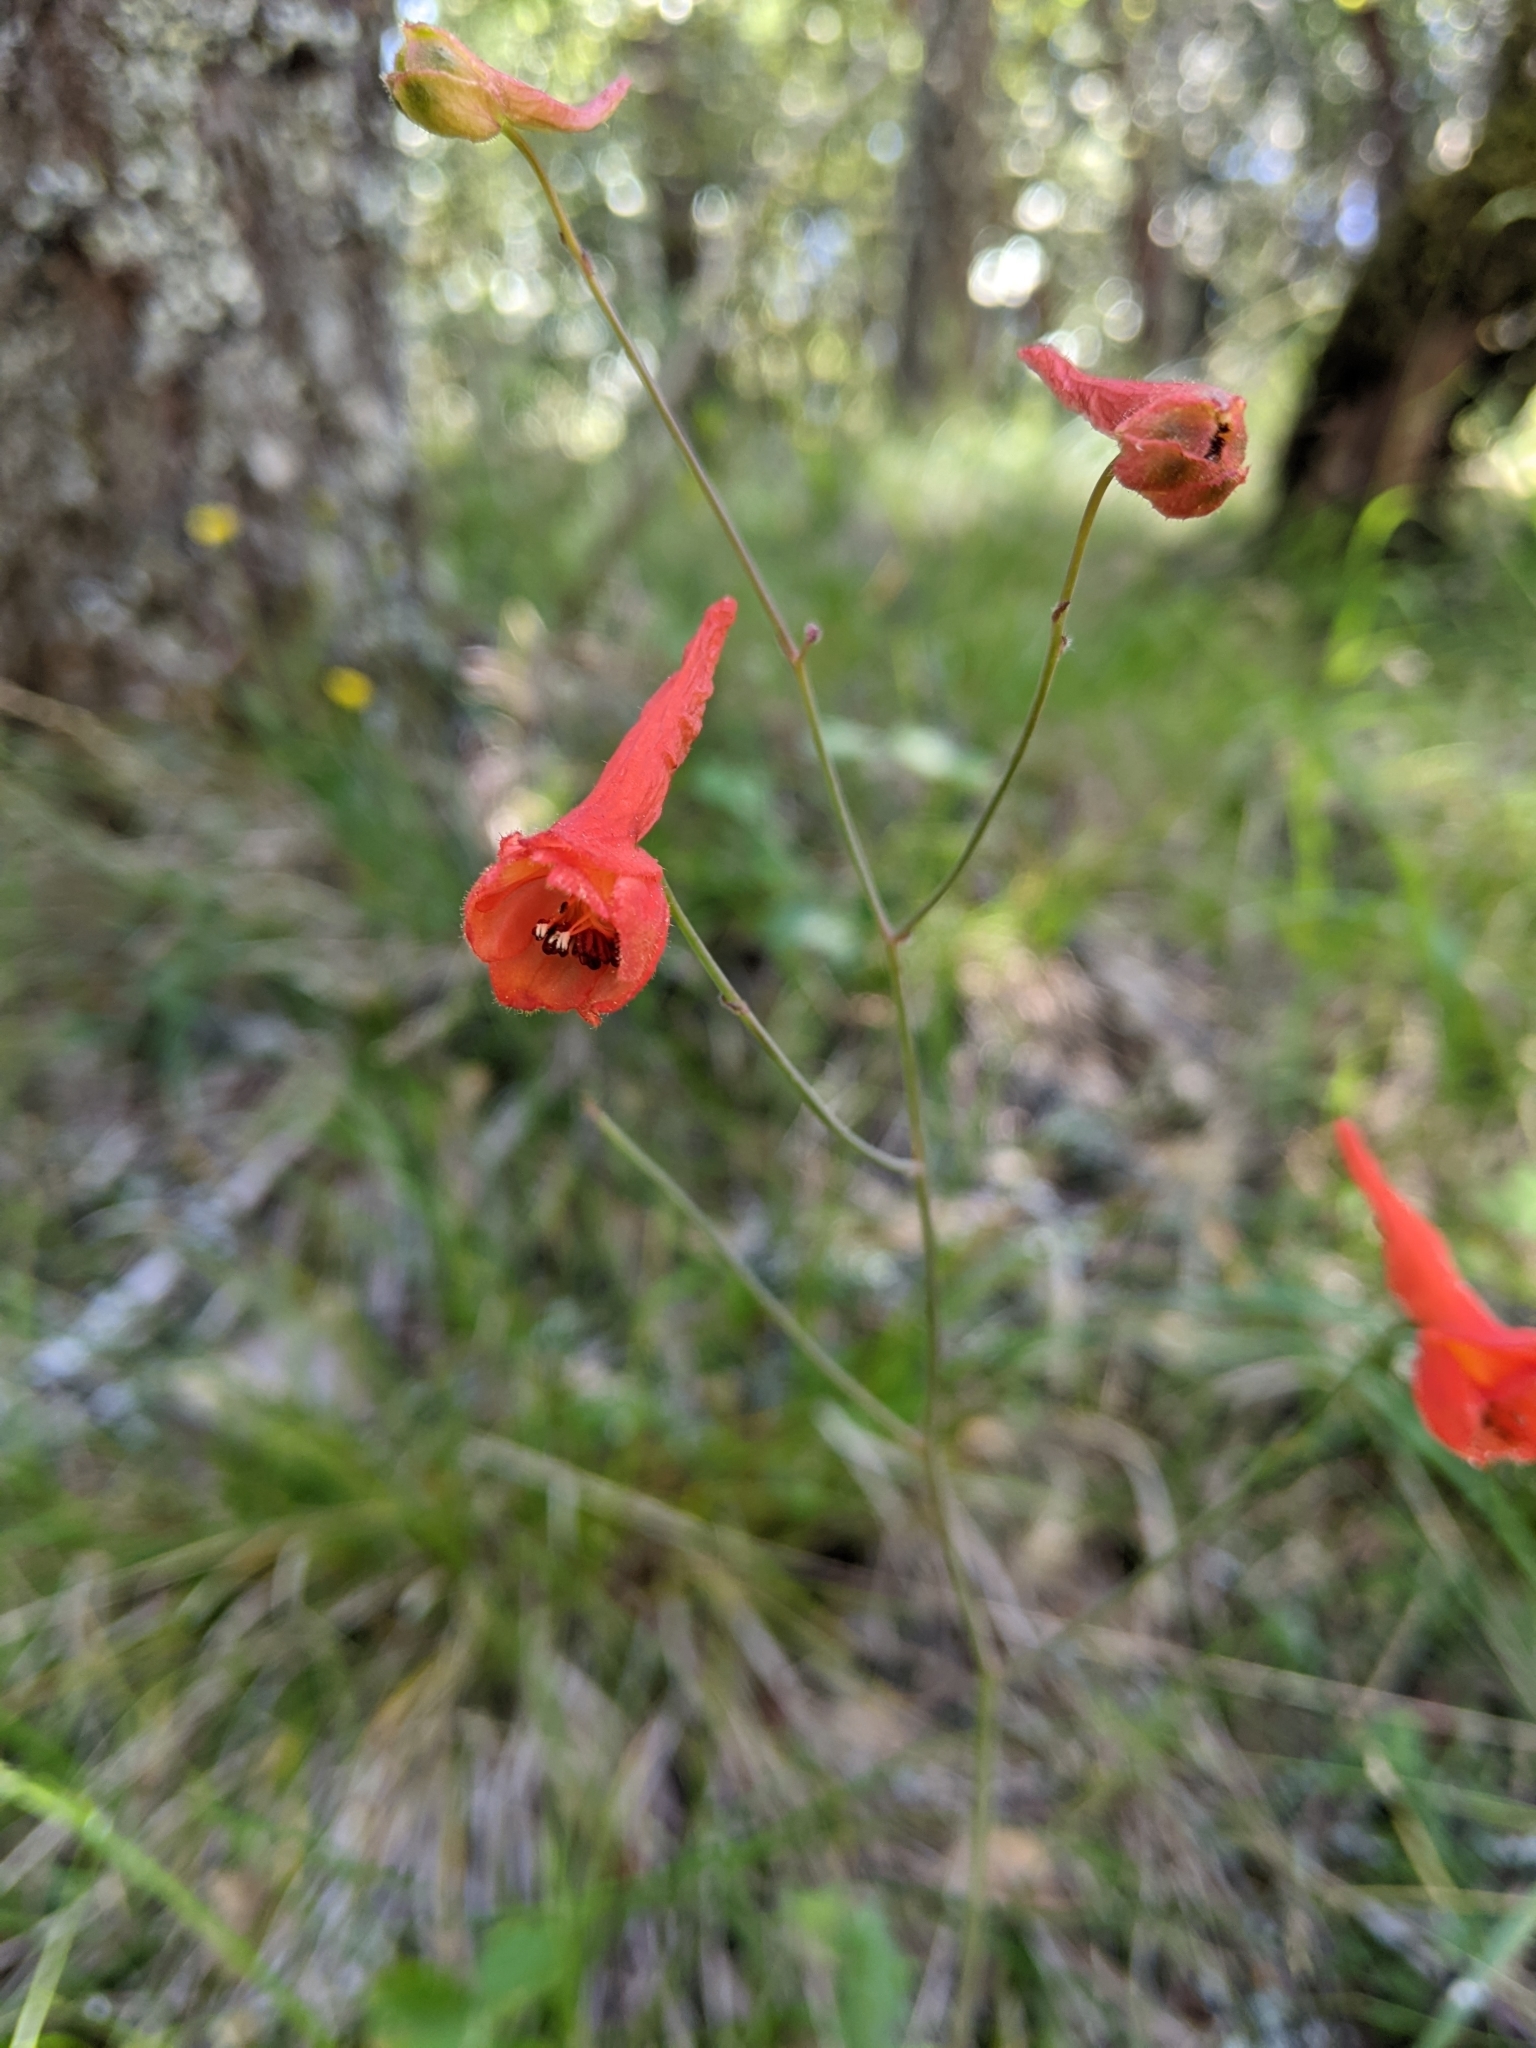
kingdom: Plantae
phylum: Tracheophyta
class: Magnoliopsida
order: Ranunculales
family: Ranunculaceae
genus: Delphinium
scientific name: Delphinium nudicaule
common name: Red larkspur
